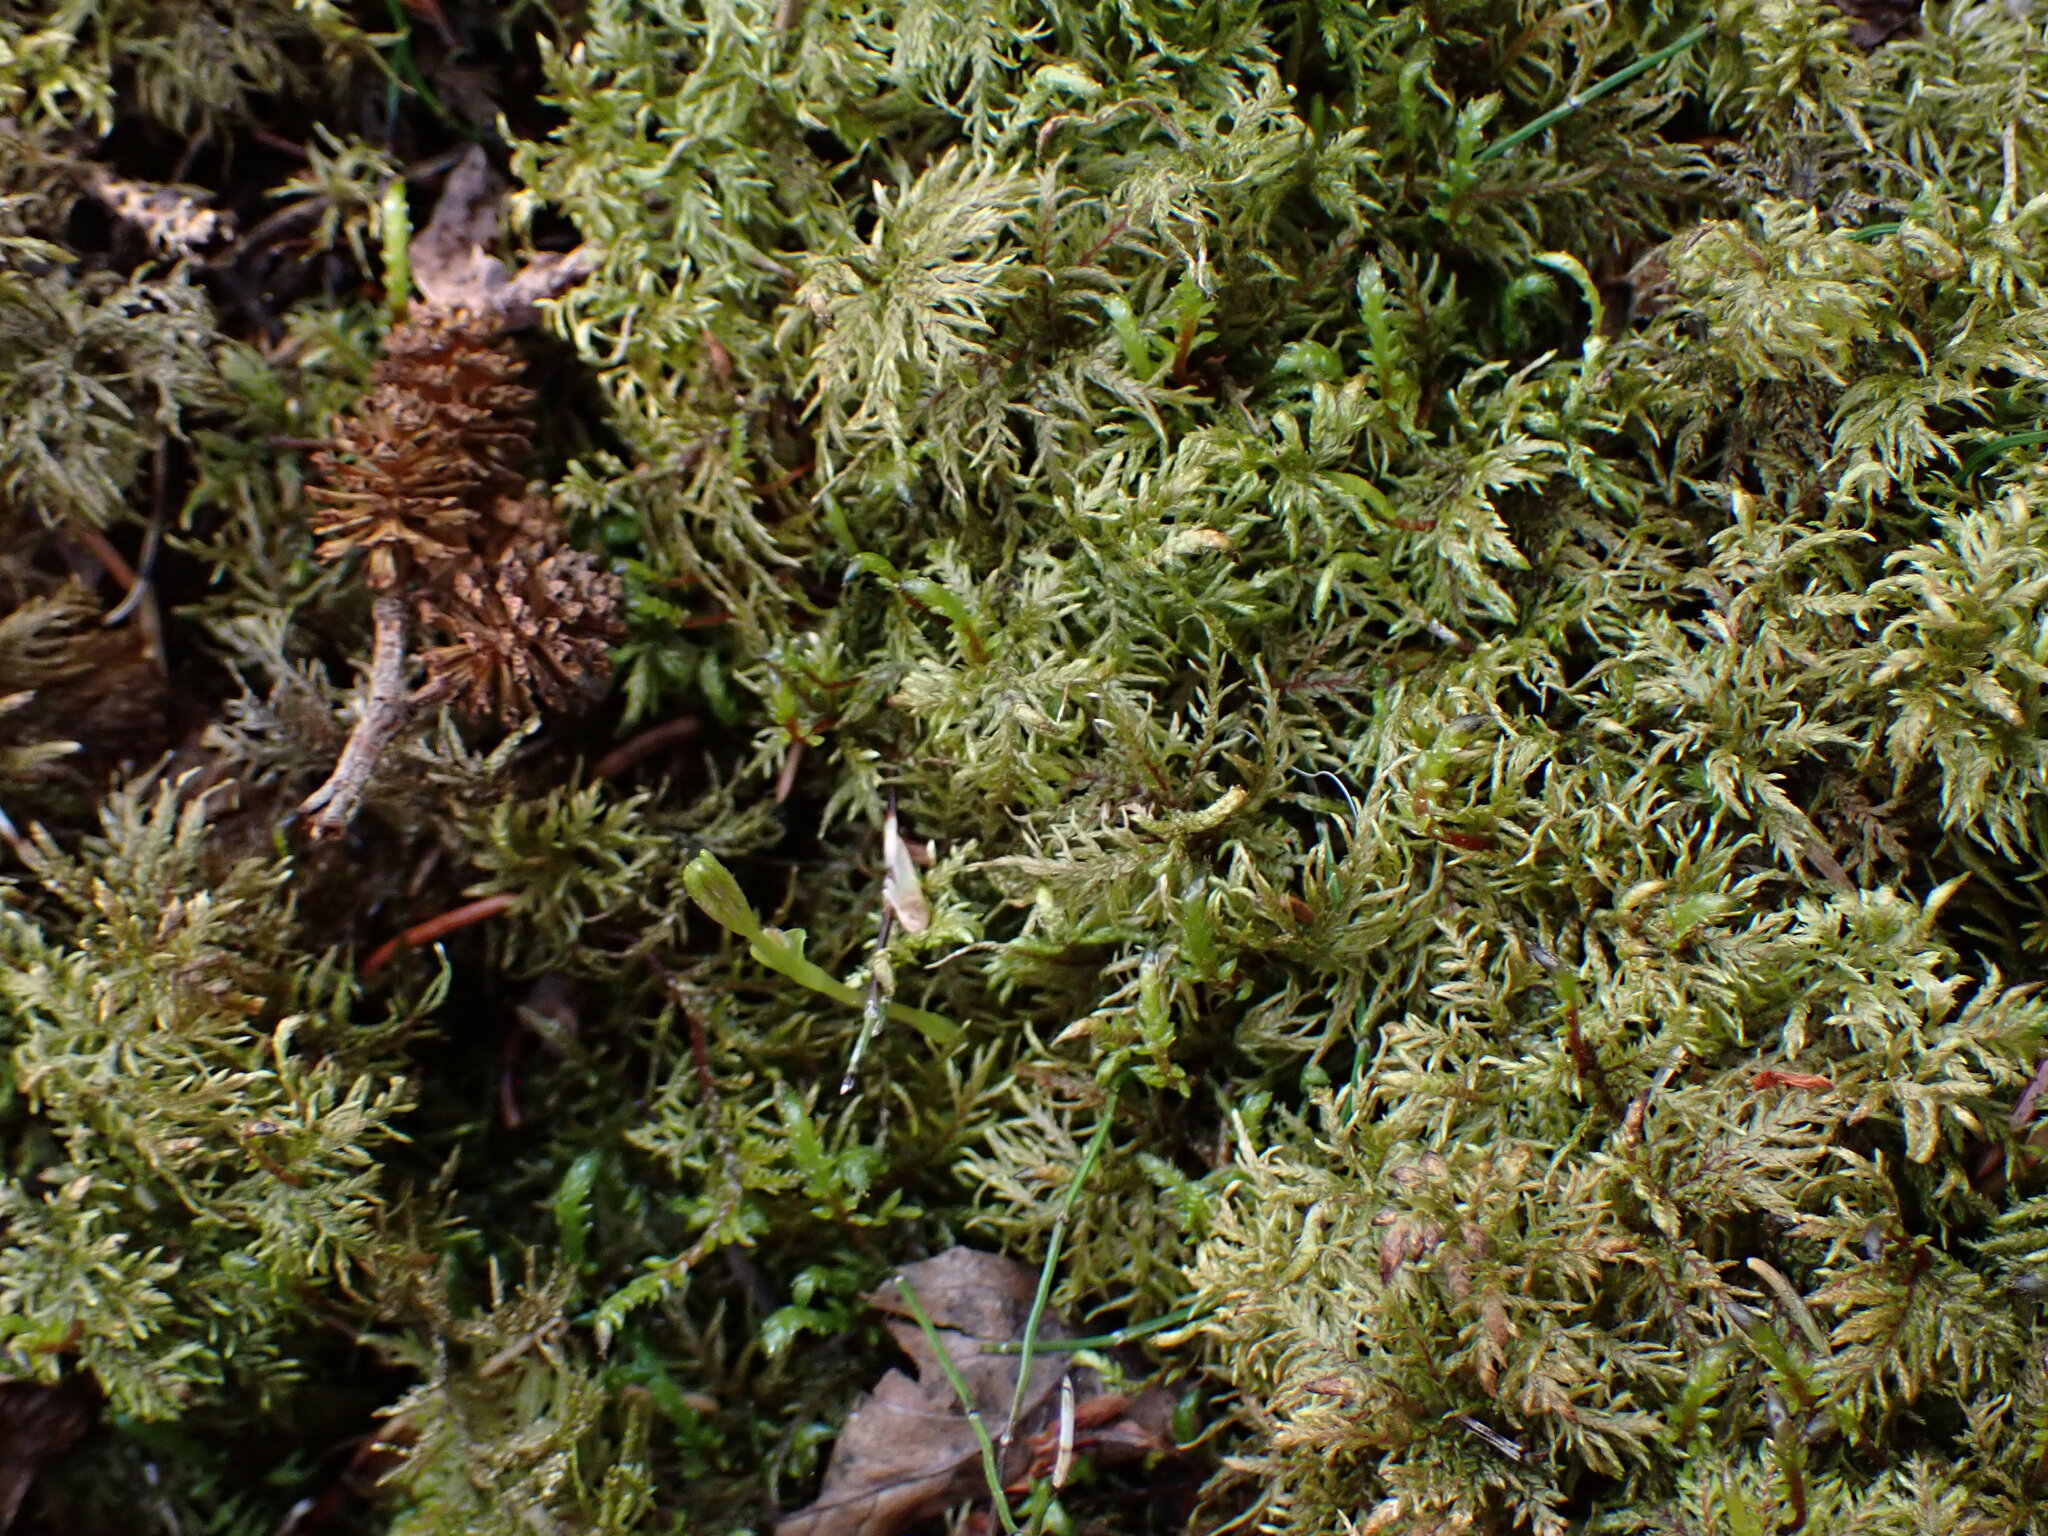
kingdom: Plantae
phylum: Bryophyta
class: Bryopsida
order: Hypnales
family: Hylocomiaceae
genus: Hylocomium
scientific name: Hylocomium splendens
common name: Stairstep moss
